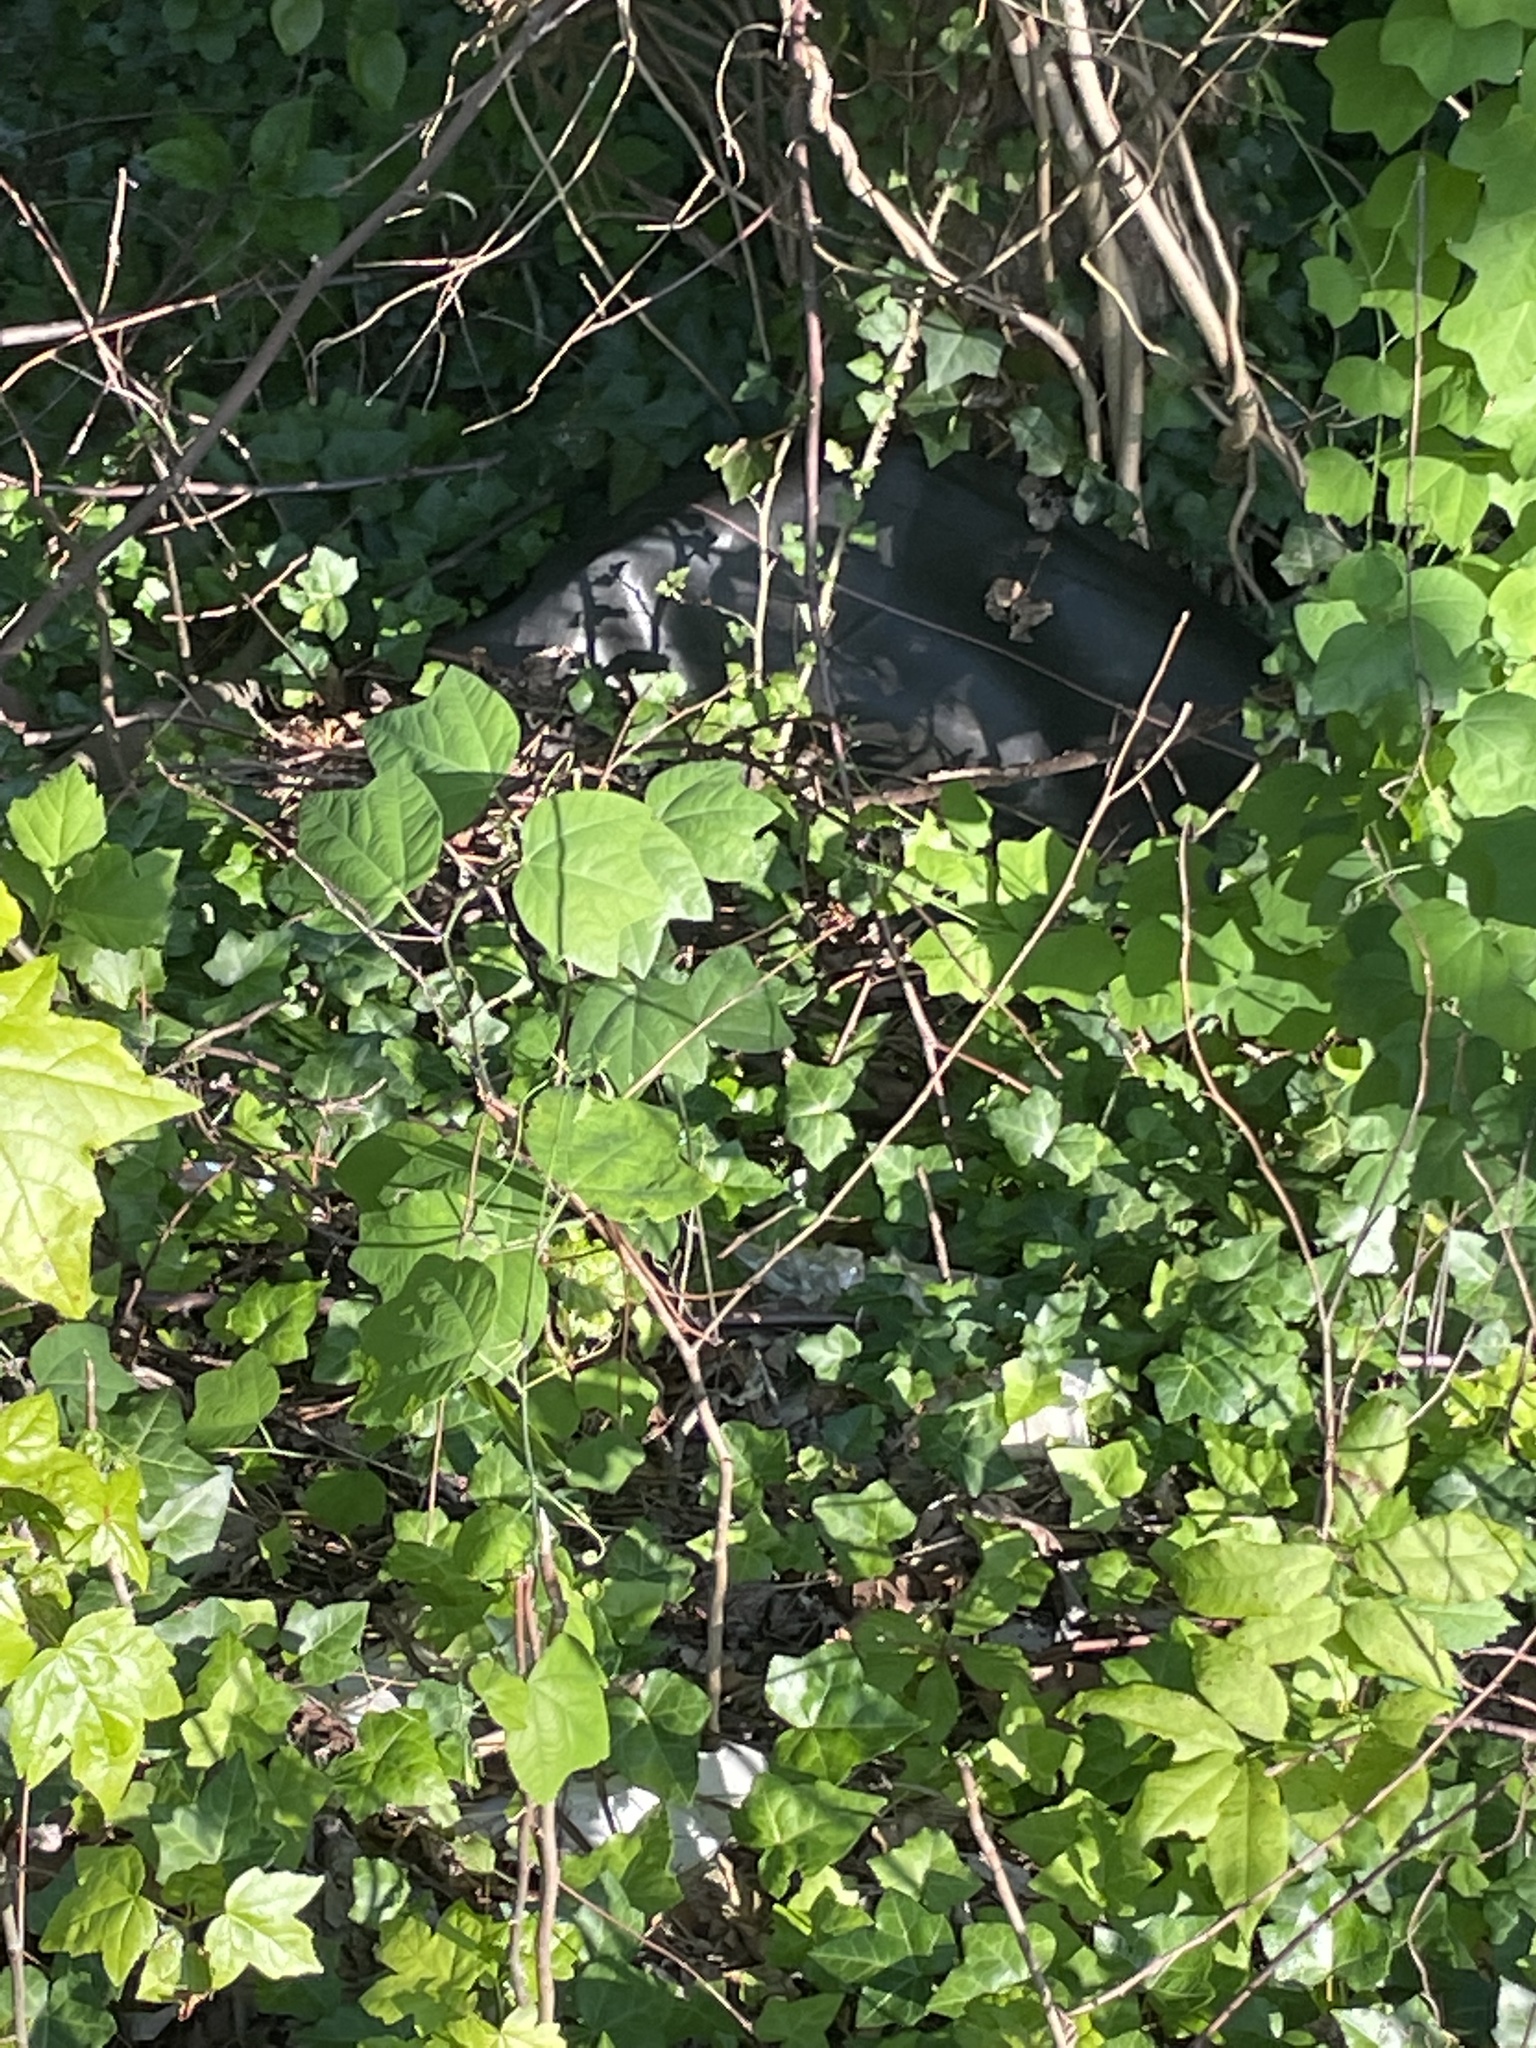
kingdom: Plantae
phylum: Tracheophyta
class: Magnoliopsida
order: Malpighiales
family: Passifloraceae
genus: Passiflora
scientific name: Passiflora lutea
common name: Yellow passionflower
